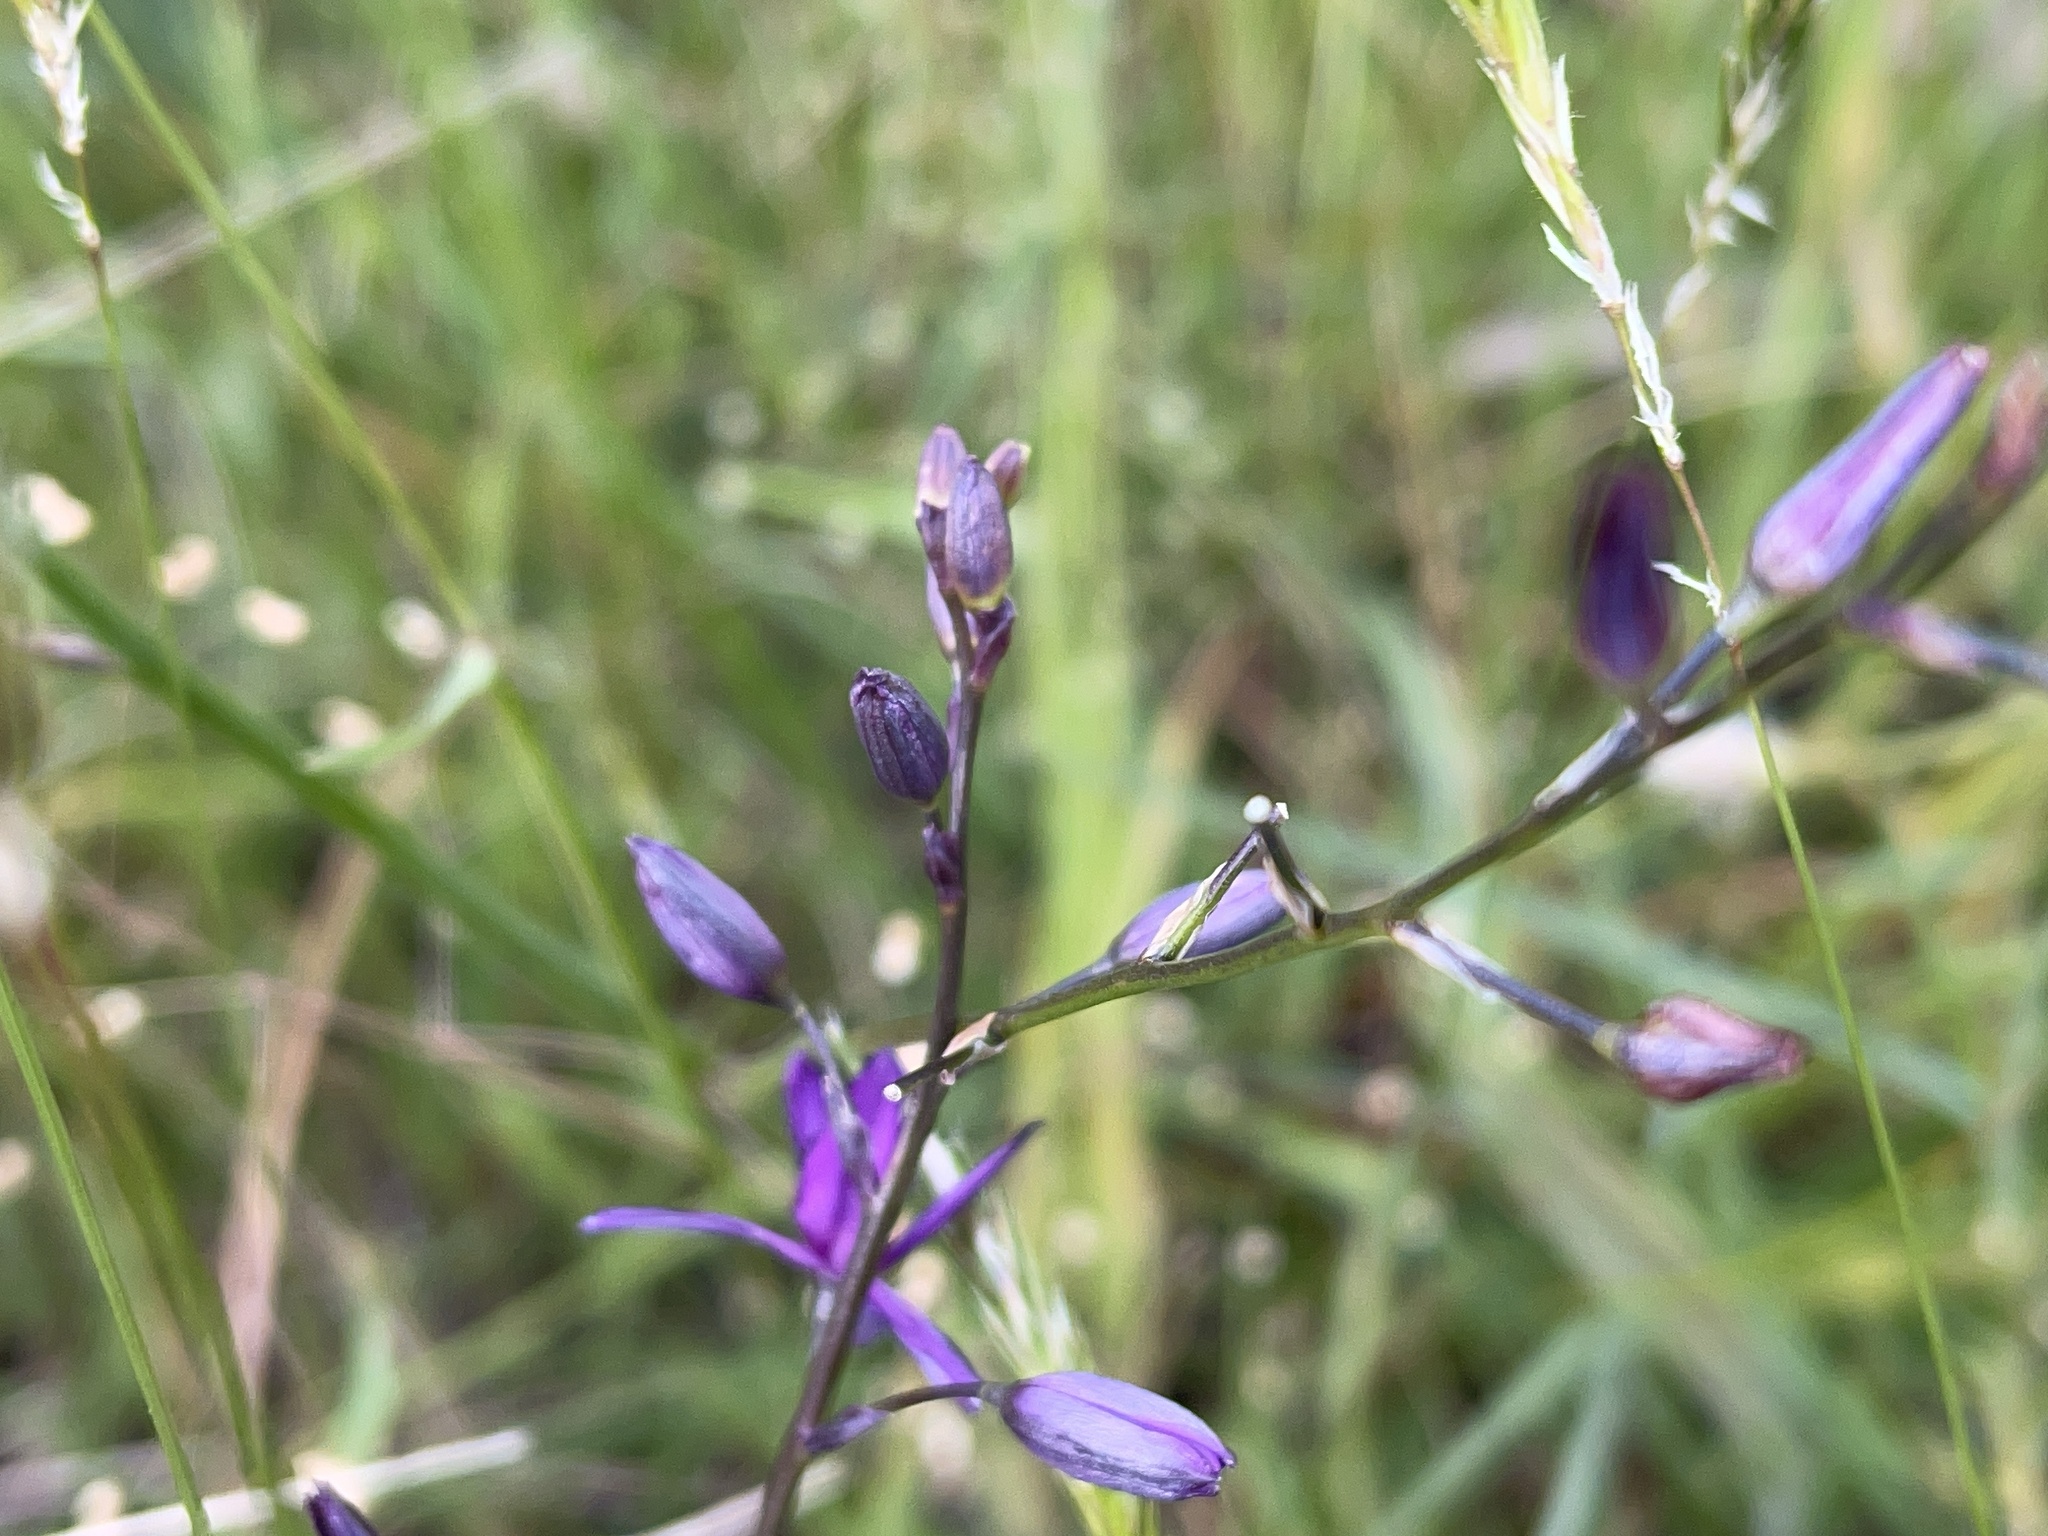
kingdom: Plantae
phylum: Tracheophyta
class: Liliopsida
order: Asparagales
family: Asparagaceae
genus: Arthropodium
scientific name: Arthropodium strictum
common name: Chocolate-lily
